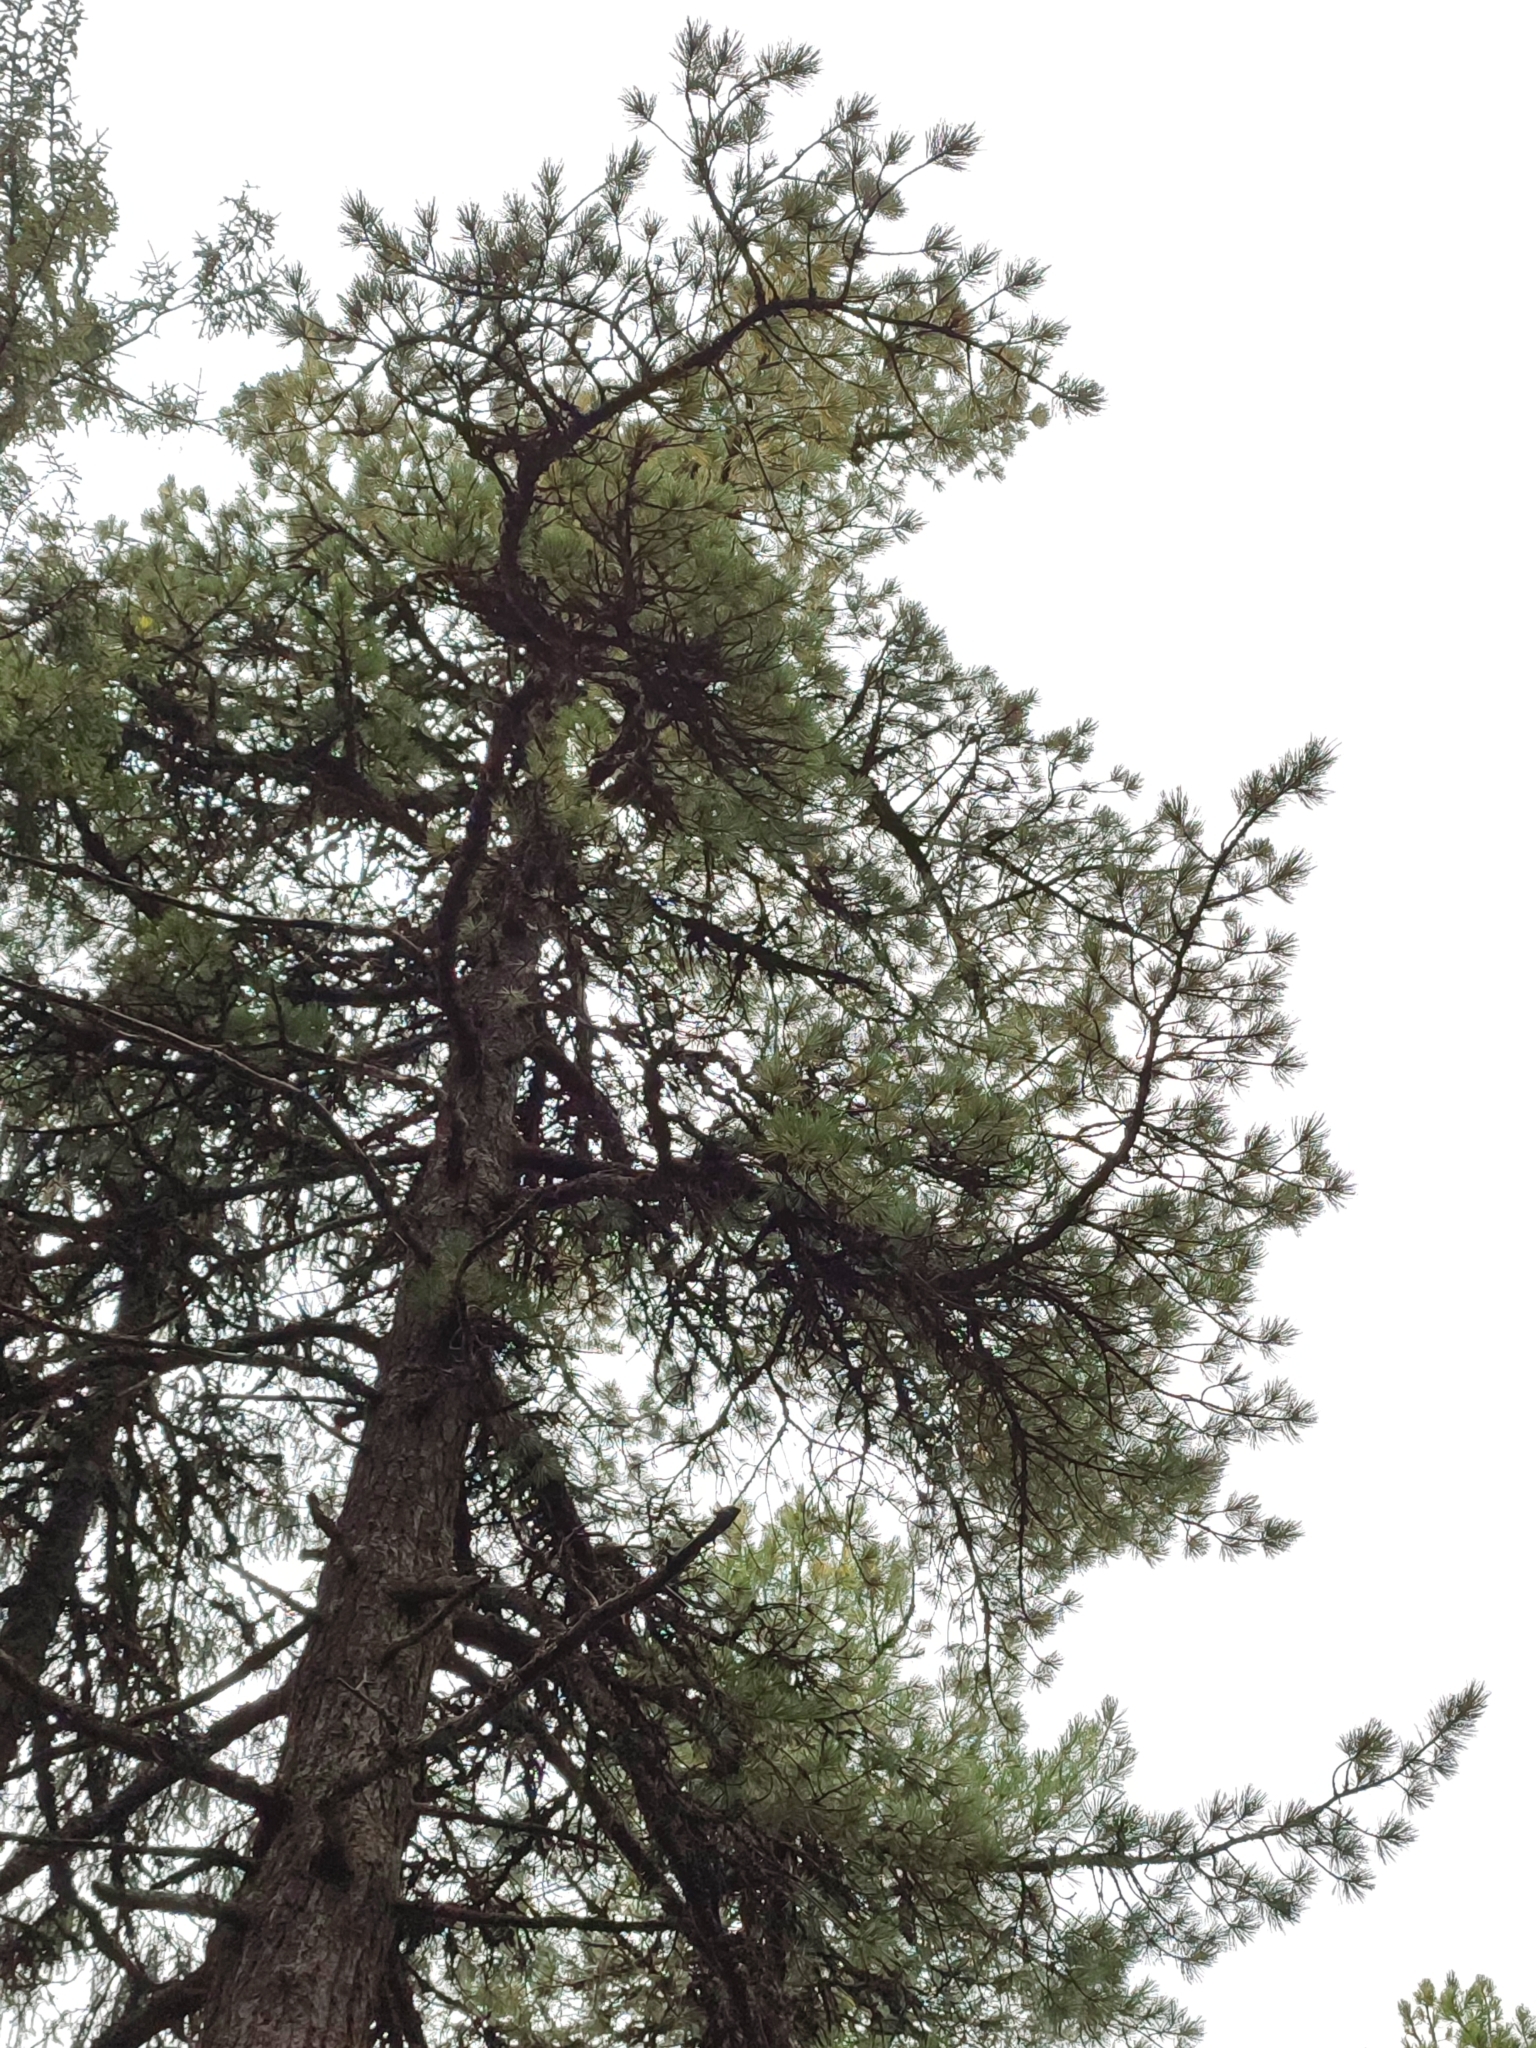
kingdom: Plantae
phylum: Tracheophyta
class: Pinopsida
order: Pinales
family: Pinaceae
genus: Pinus
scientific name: Pinus cembra
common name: Arolla pine
